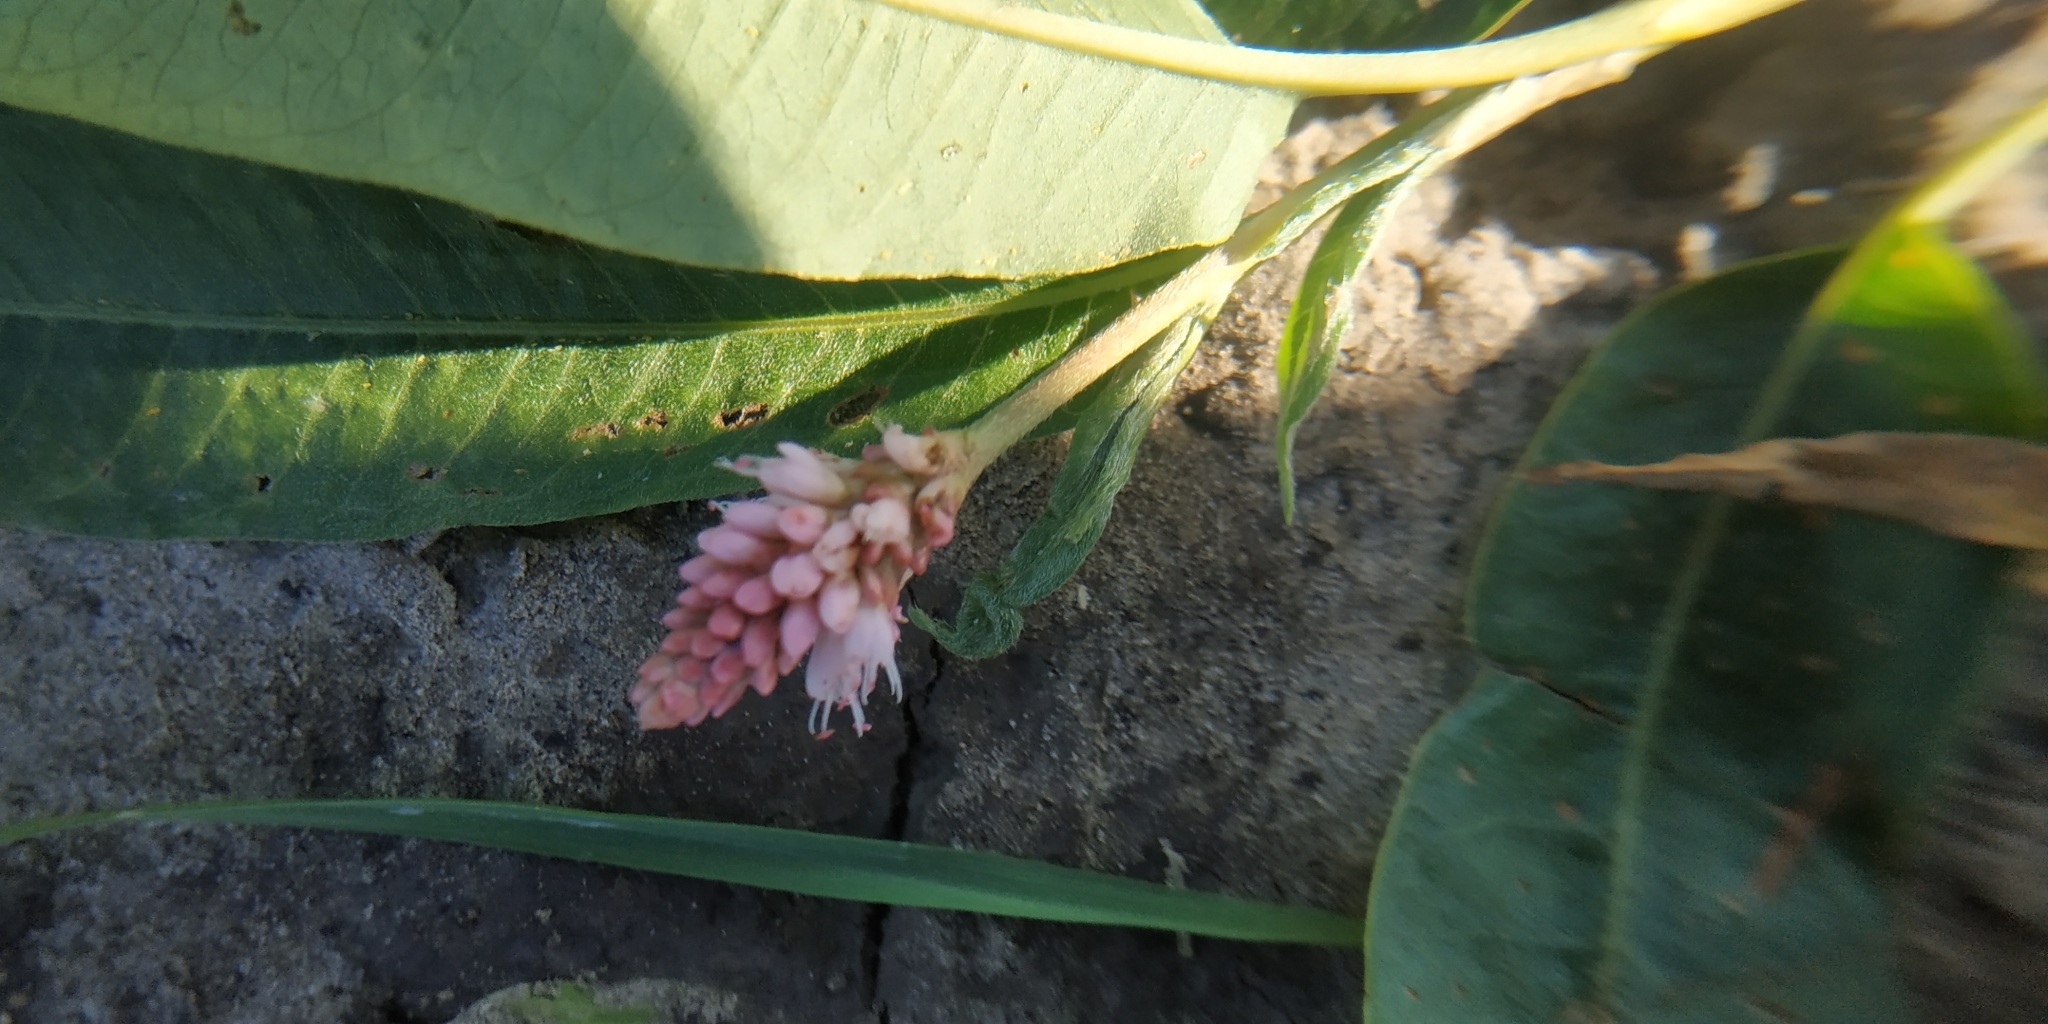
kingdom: Plantae
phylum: Tracheophyta
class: Magnoliopsida
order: Caryophyllales
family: Polygonaceae
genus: Persicaria
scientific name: Persicaria amphibia
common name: Amphibious bistort
